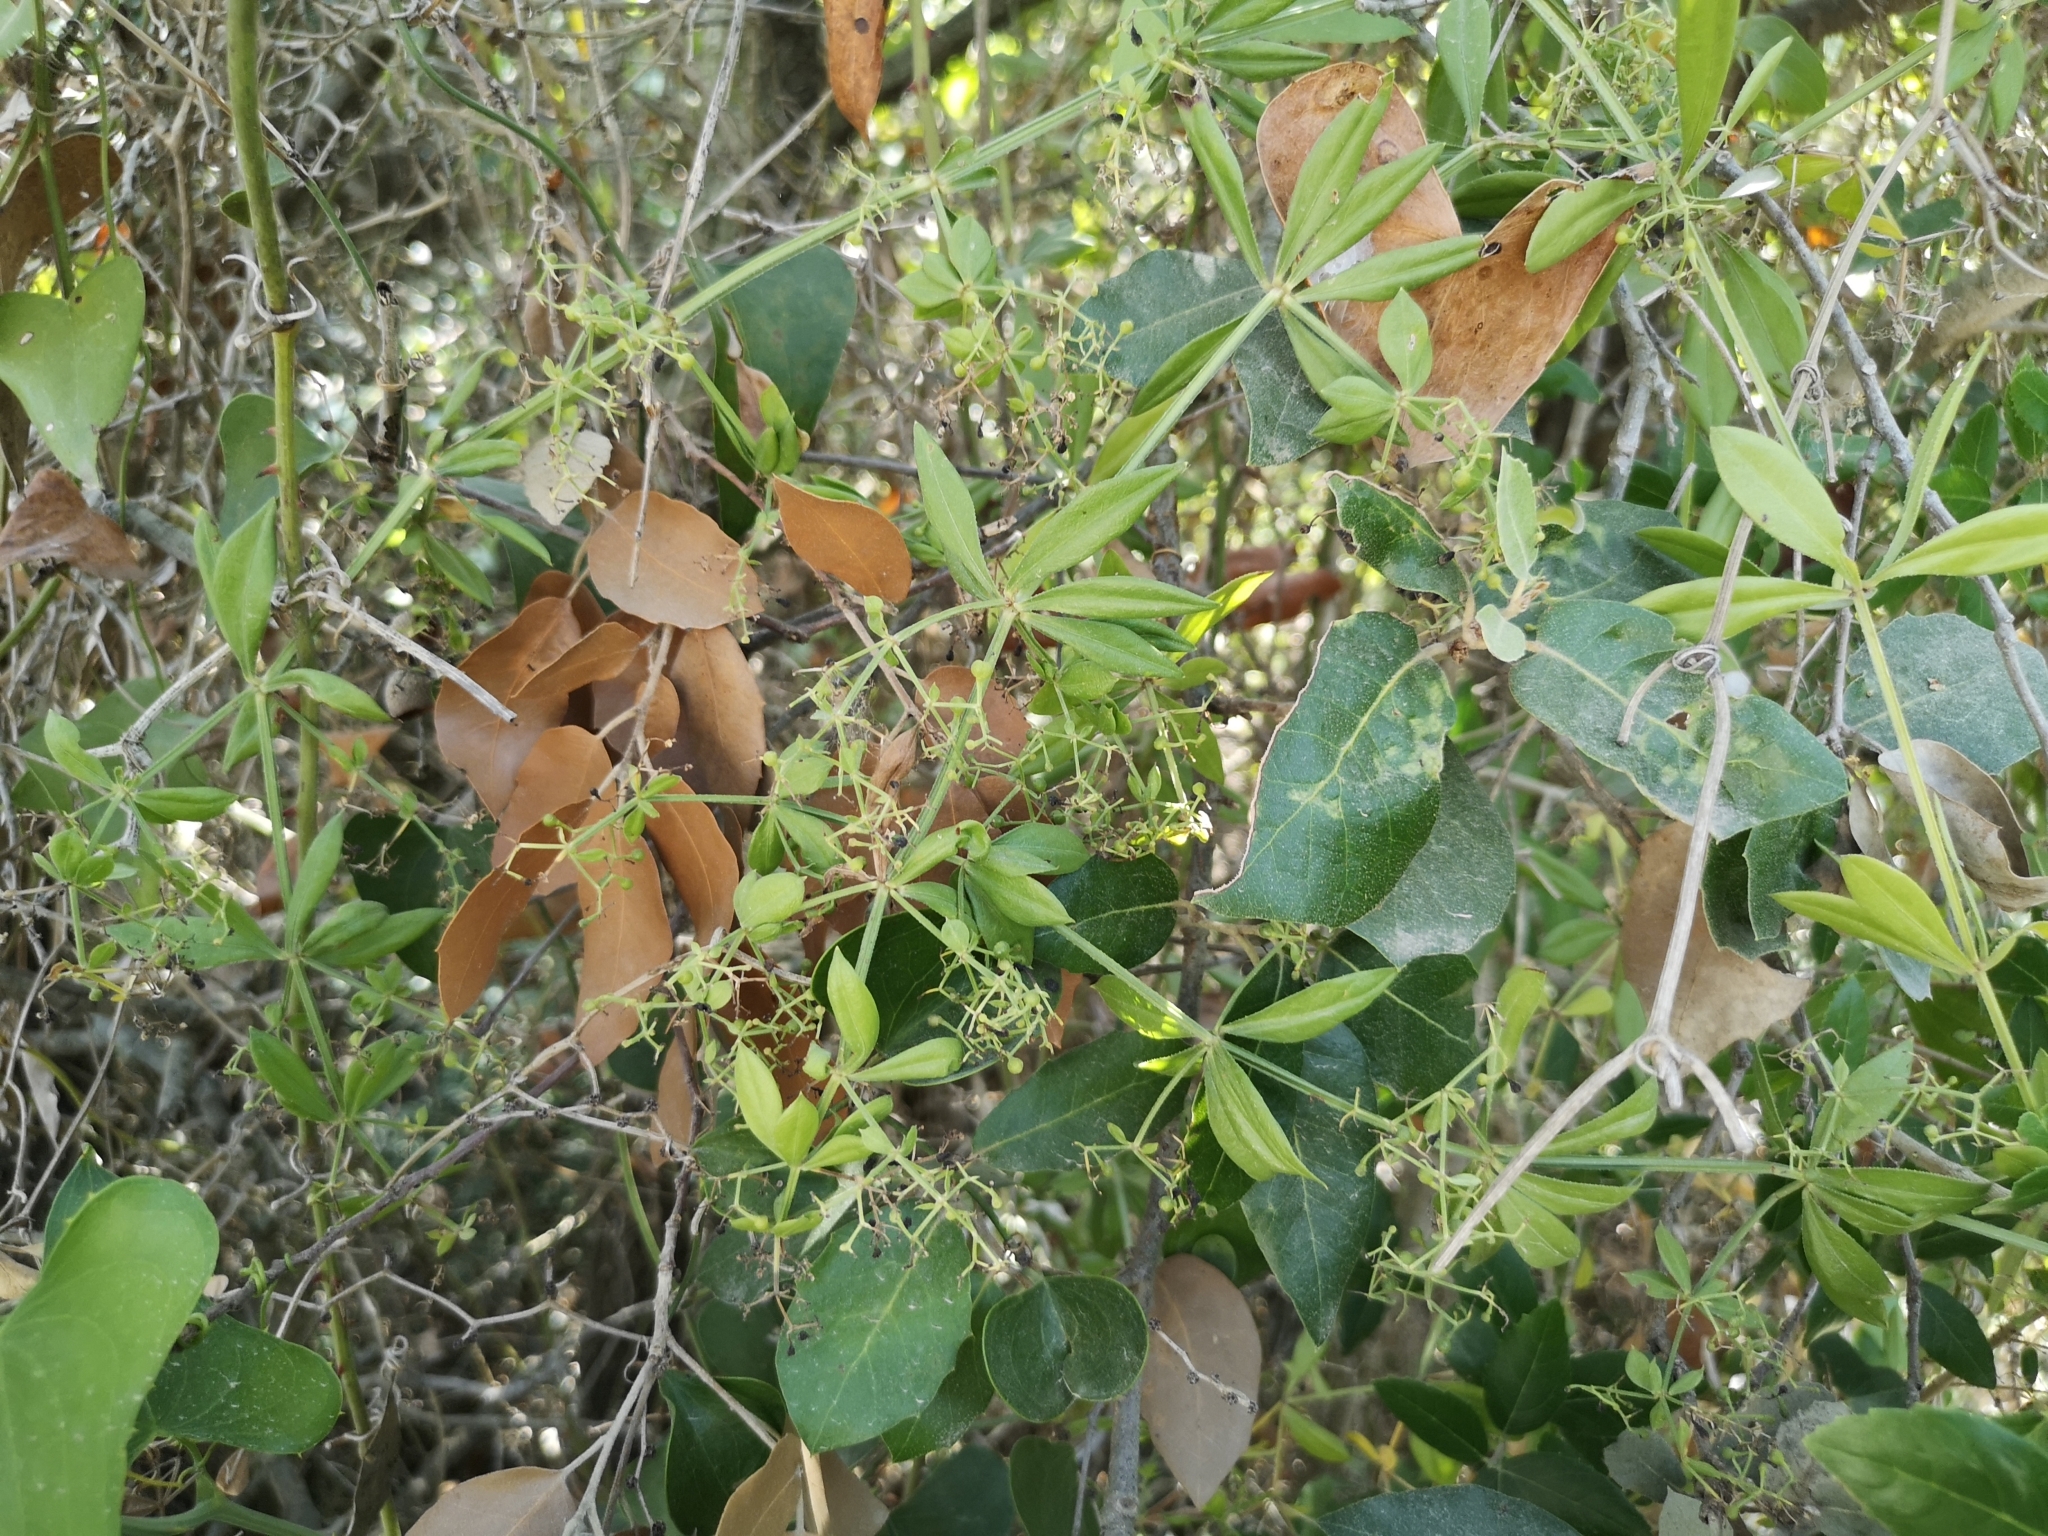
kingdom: Plantae
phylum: Tracheophyta
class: Magnoliopsida
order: Gentianales
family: Rubiaceae
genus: Rubia
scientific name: Rubia peregrina
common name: Wild madder
